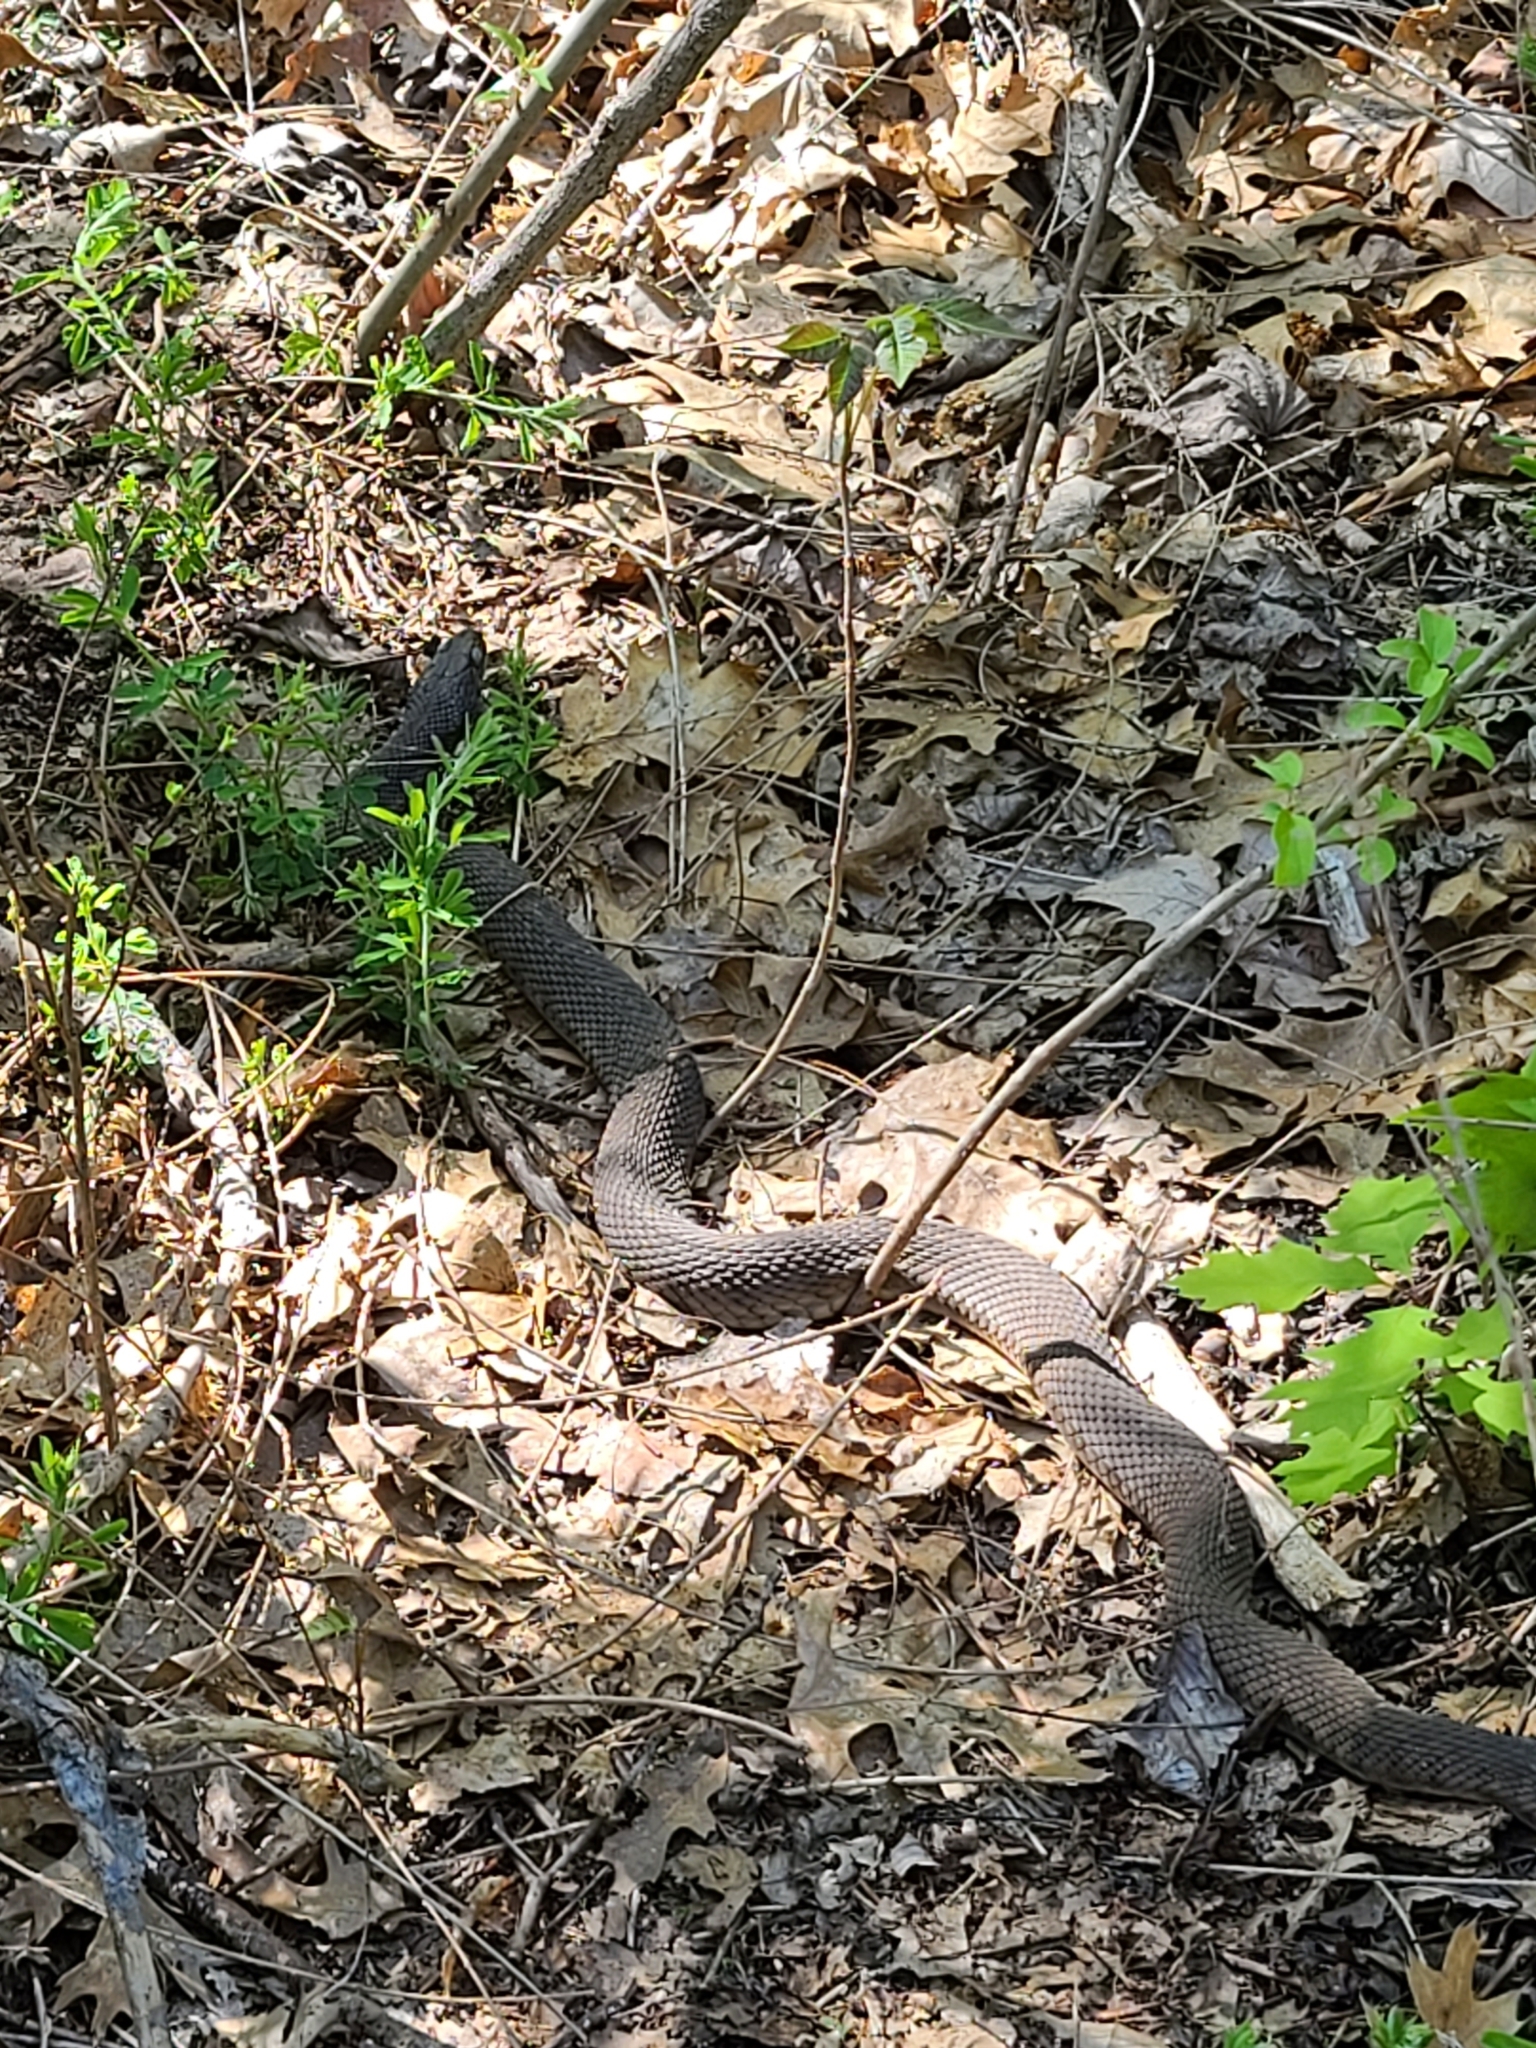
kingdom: Animalia
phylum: Chordata
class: Squamata
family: Colubridae
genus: Nerodia
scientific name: Nerodia sipedon
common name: Northern water snake
